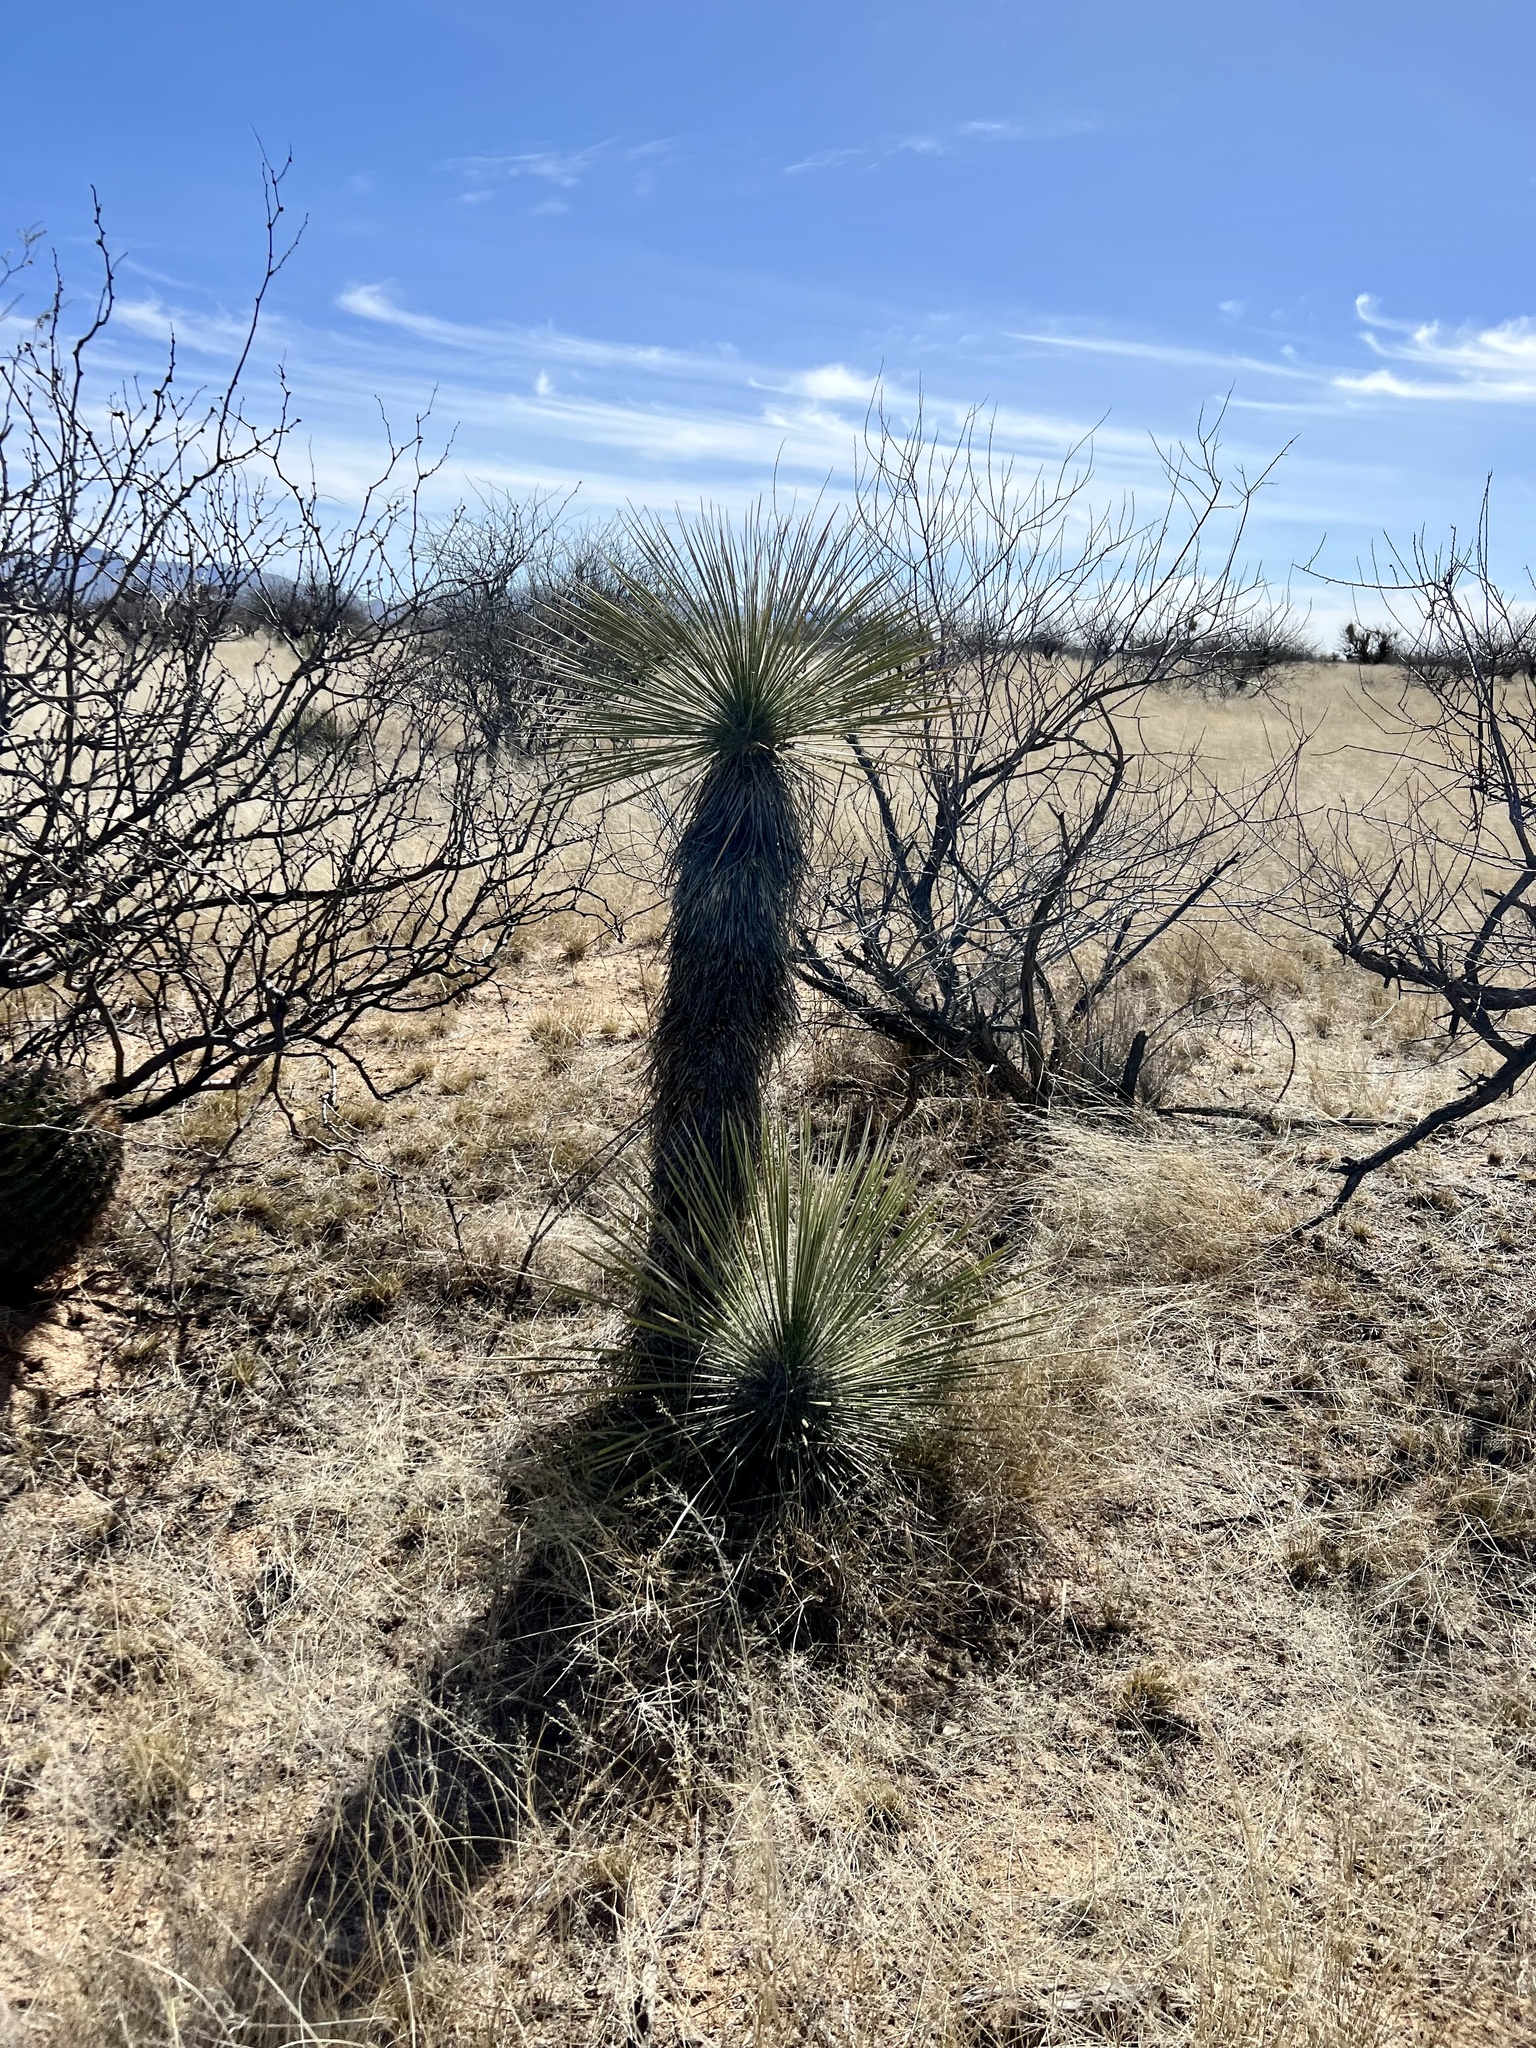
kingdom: Plantae
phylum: Tracheophyta
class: Liliopsida
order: Asparagales
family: Asparagaceae
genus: Yucca
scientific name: Yucca elata
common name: Palmella
